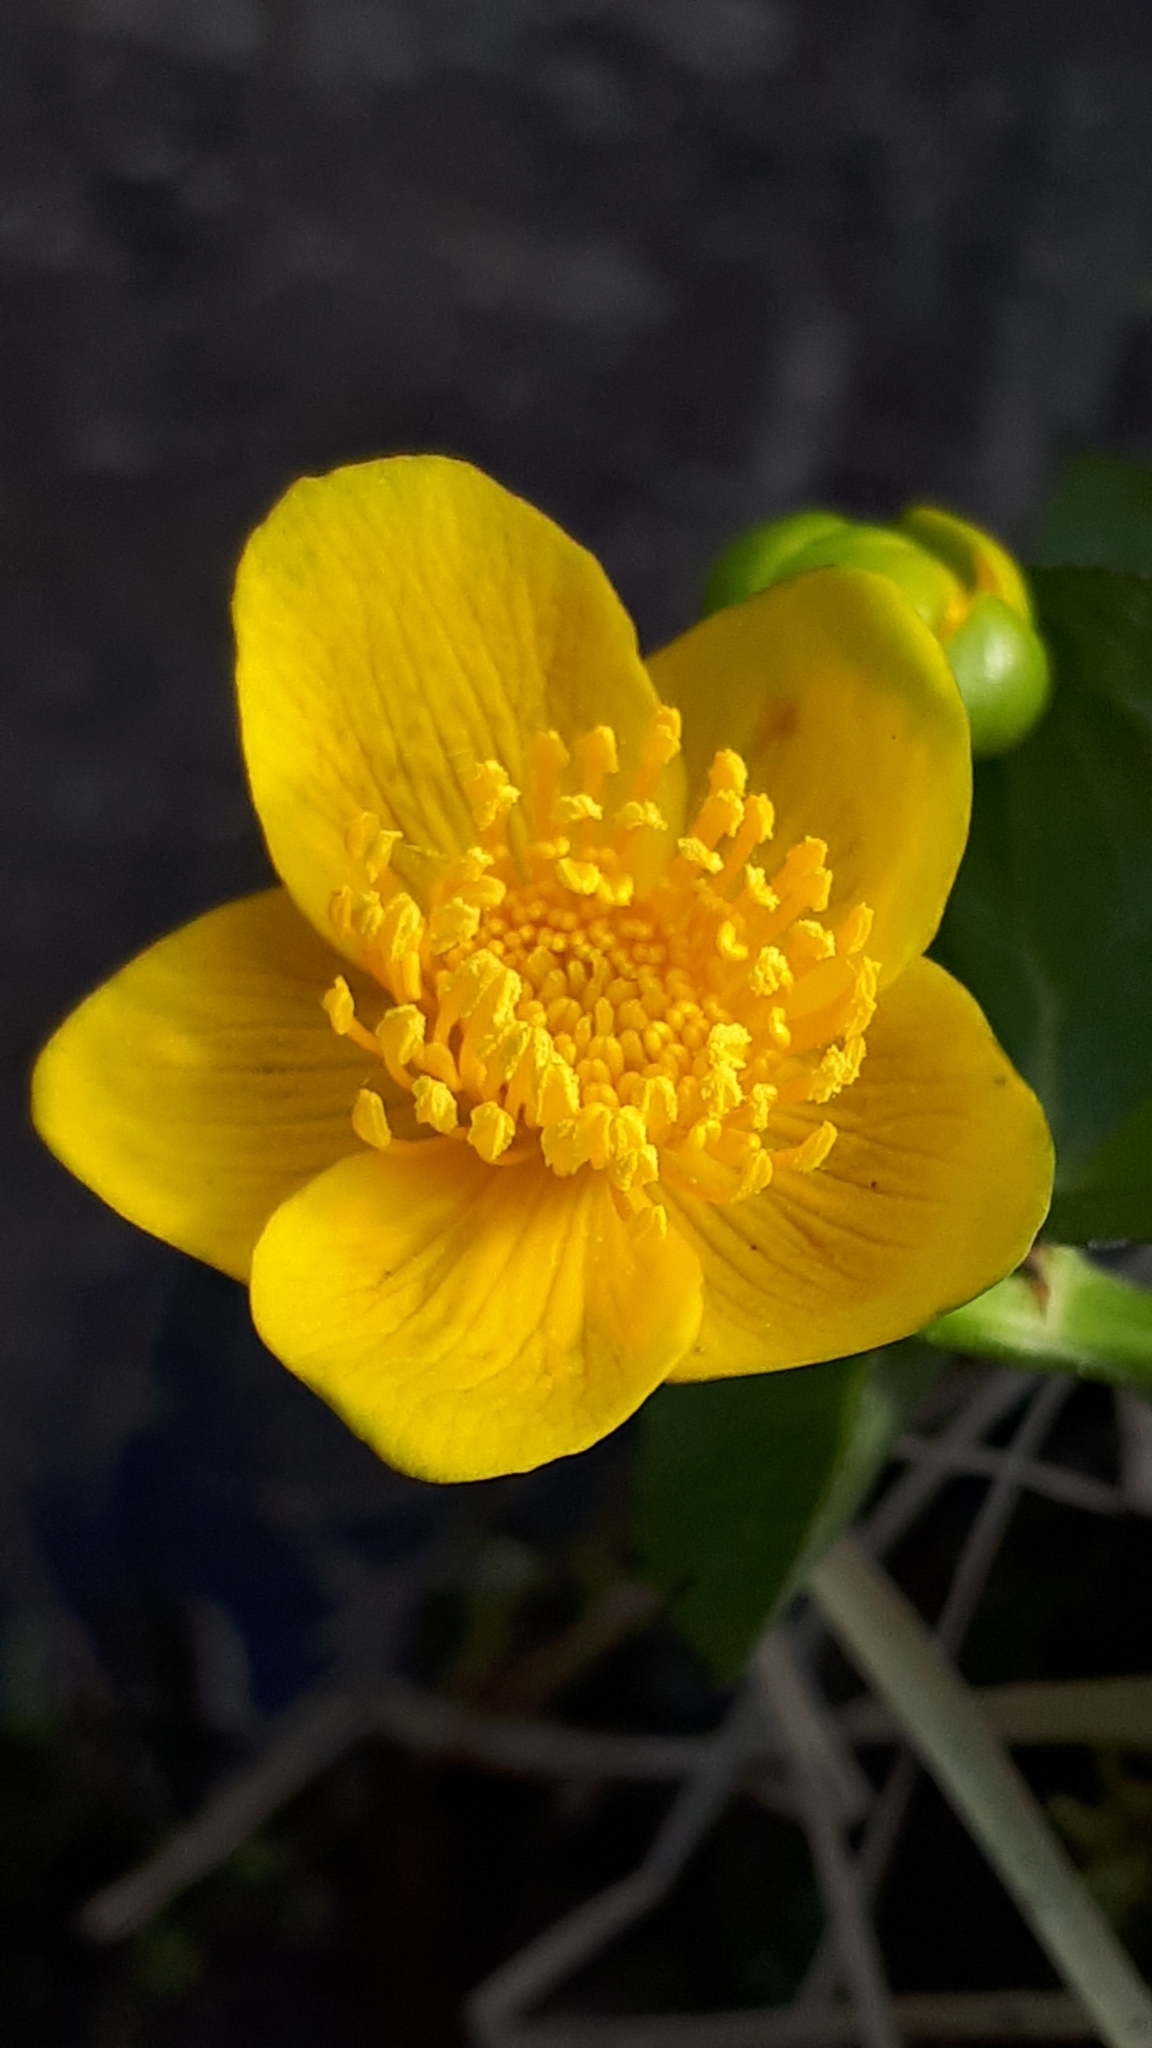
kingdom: Plantae
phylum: Tracheophyta
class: Magnoliopsida
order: Ranunculales
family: Ranunculaceae
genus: Caltha
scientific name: Caltha palustris
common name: Marsh marigold
